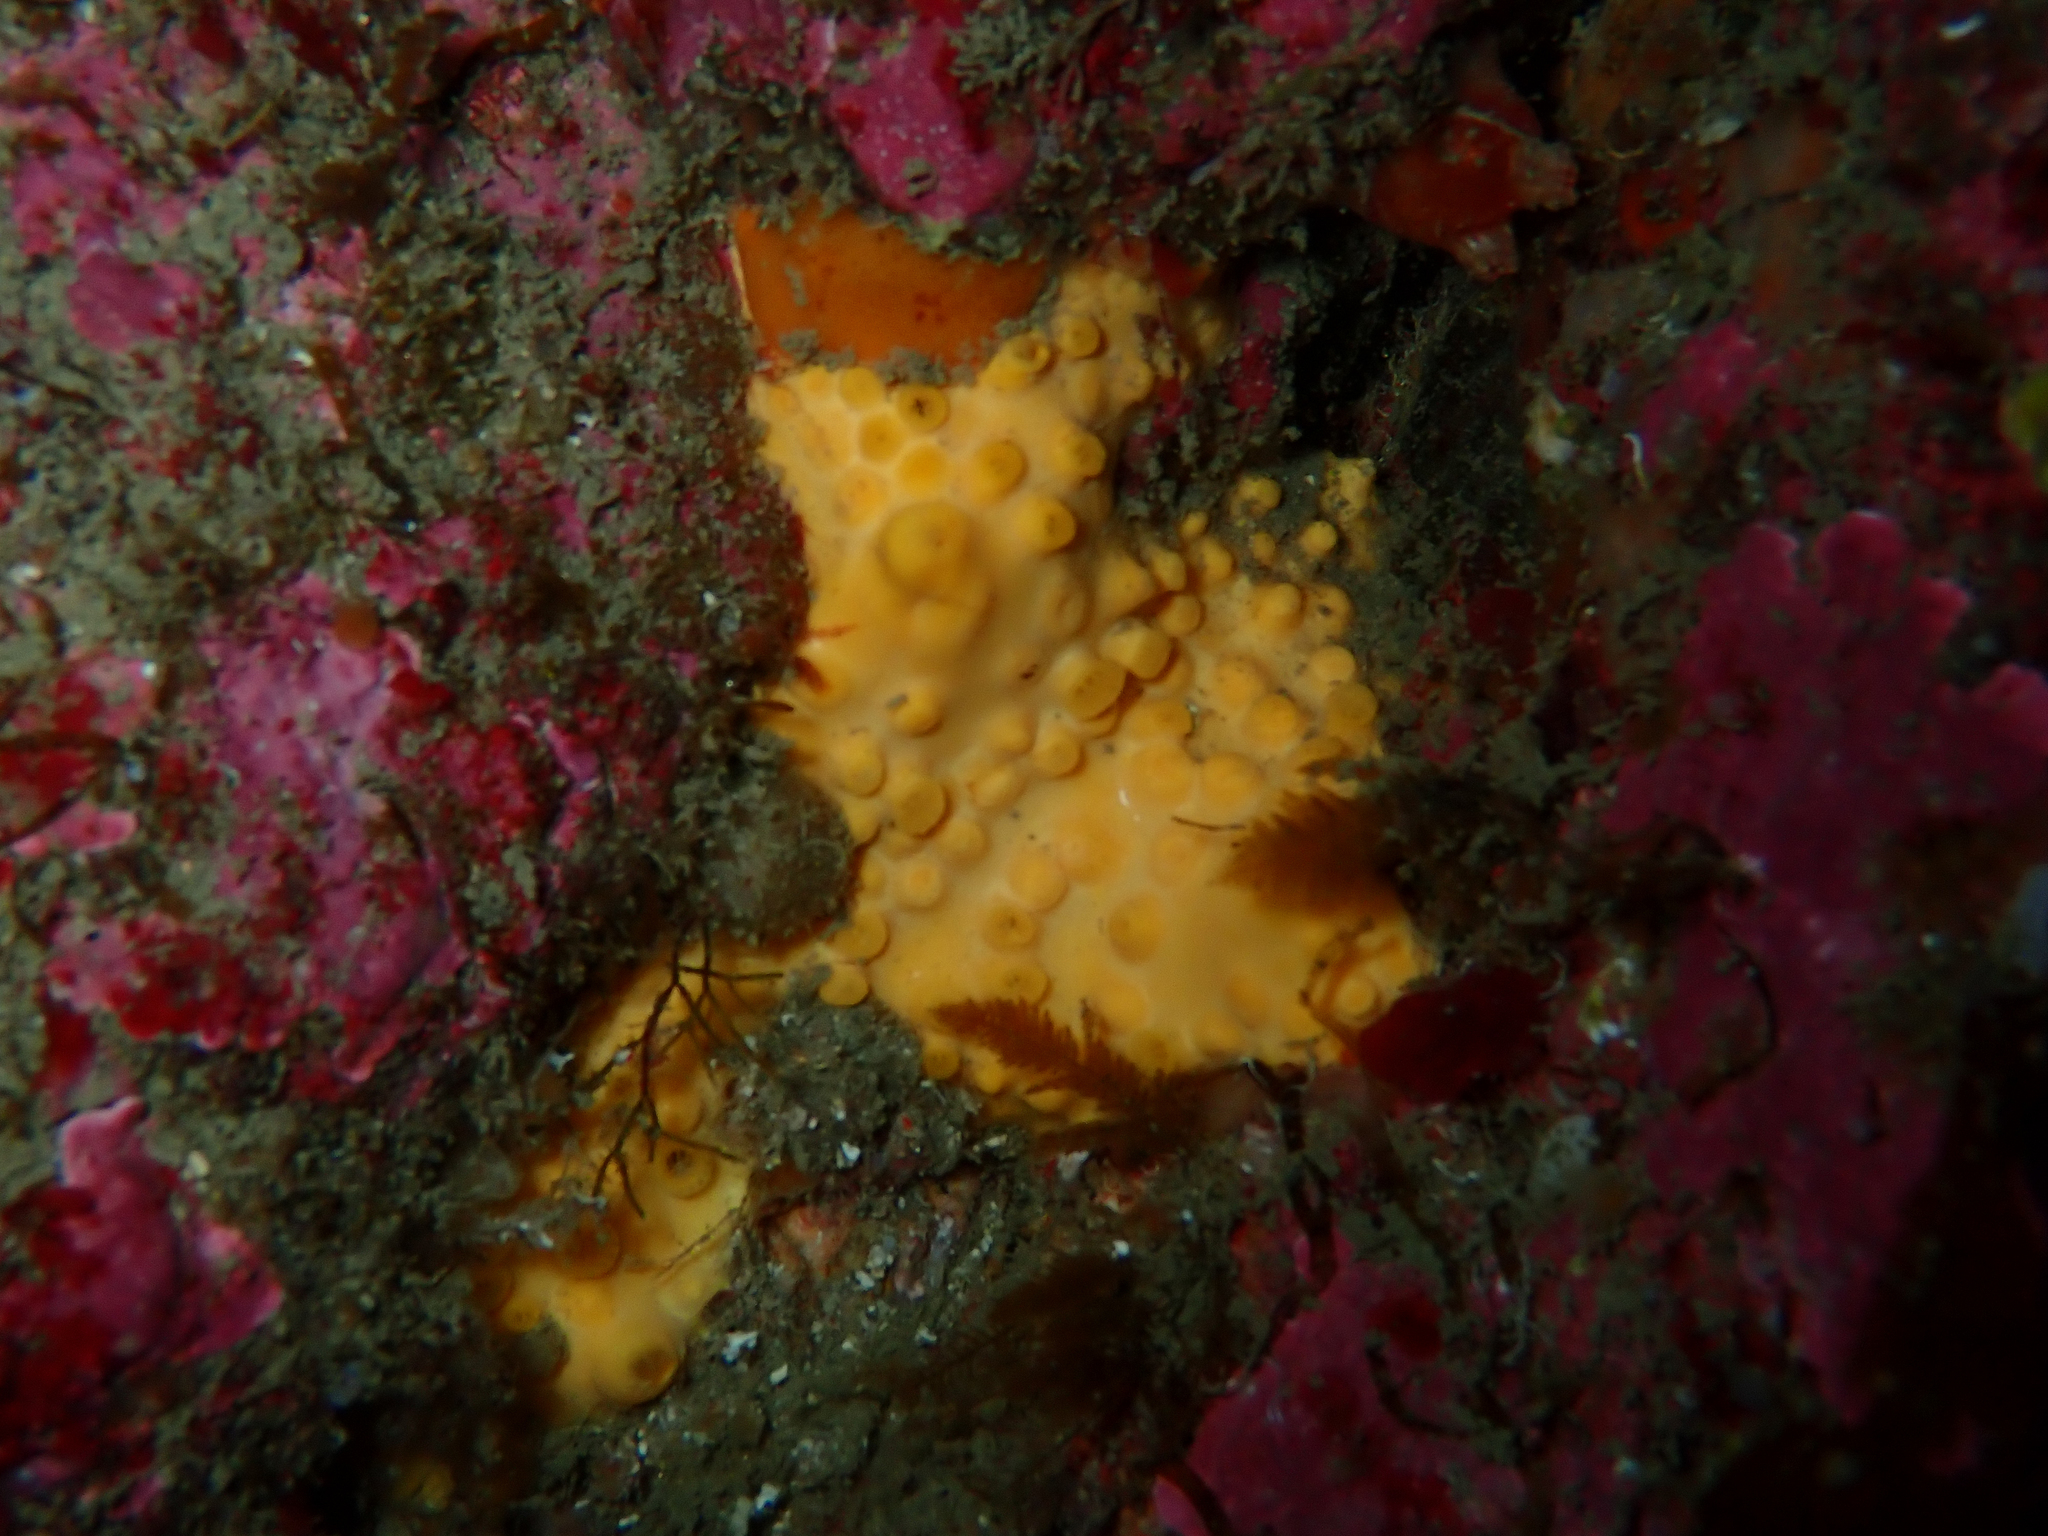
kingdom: Animalia
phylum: Porifera
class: Demospongiae
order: Clionaida
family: Clionaidae
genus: Cliona
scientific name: Cliona celata
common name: Boring sponge
